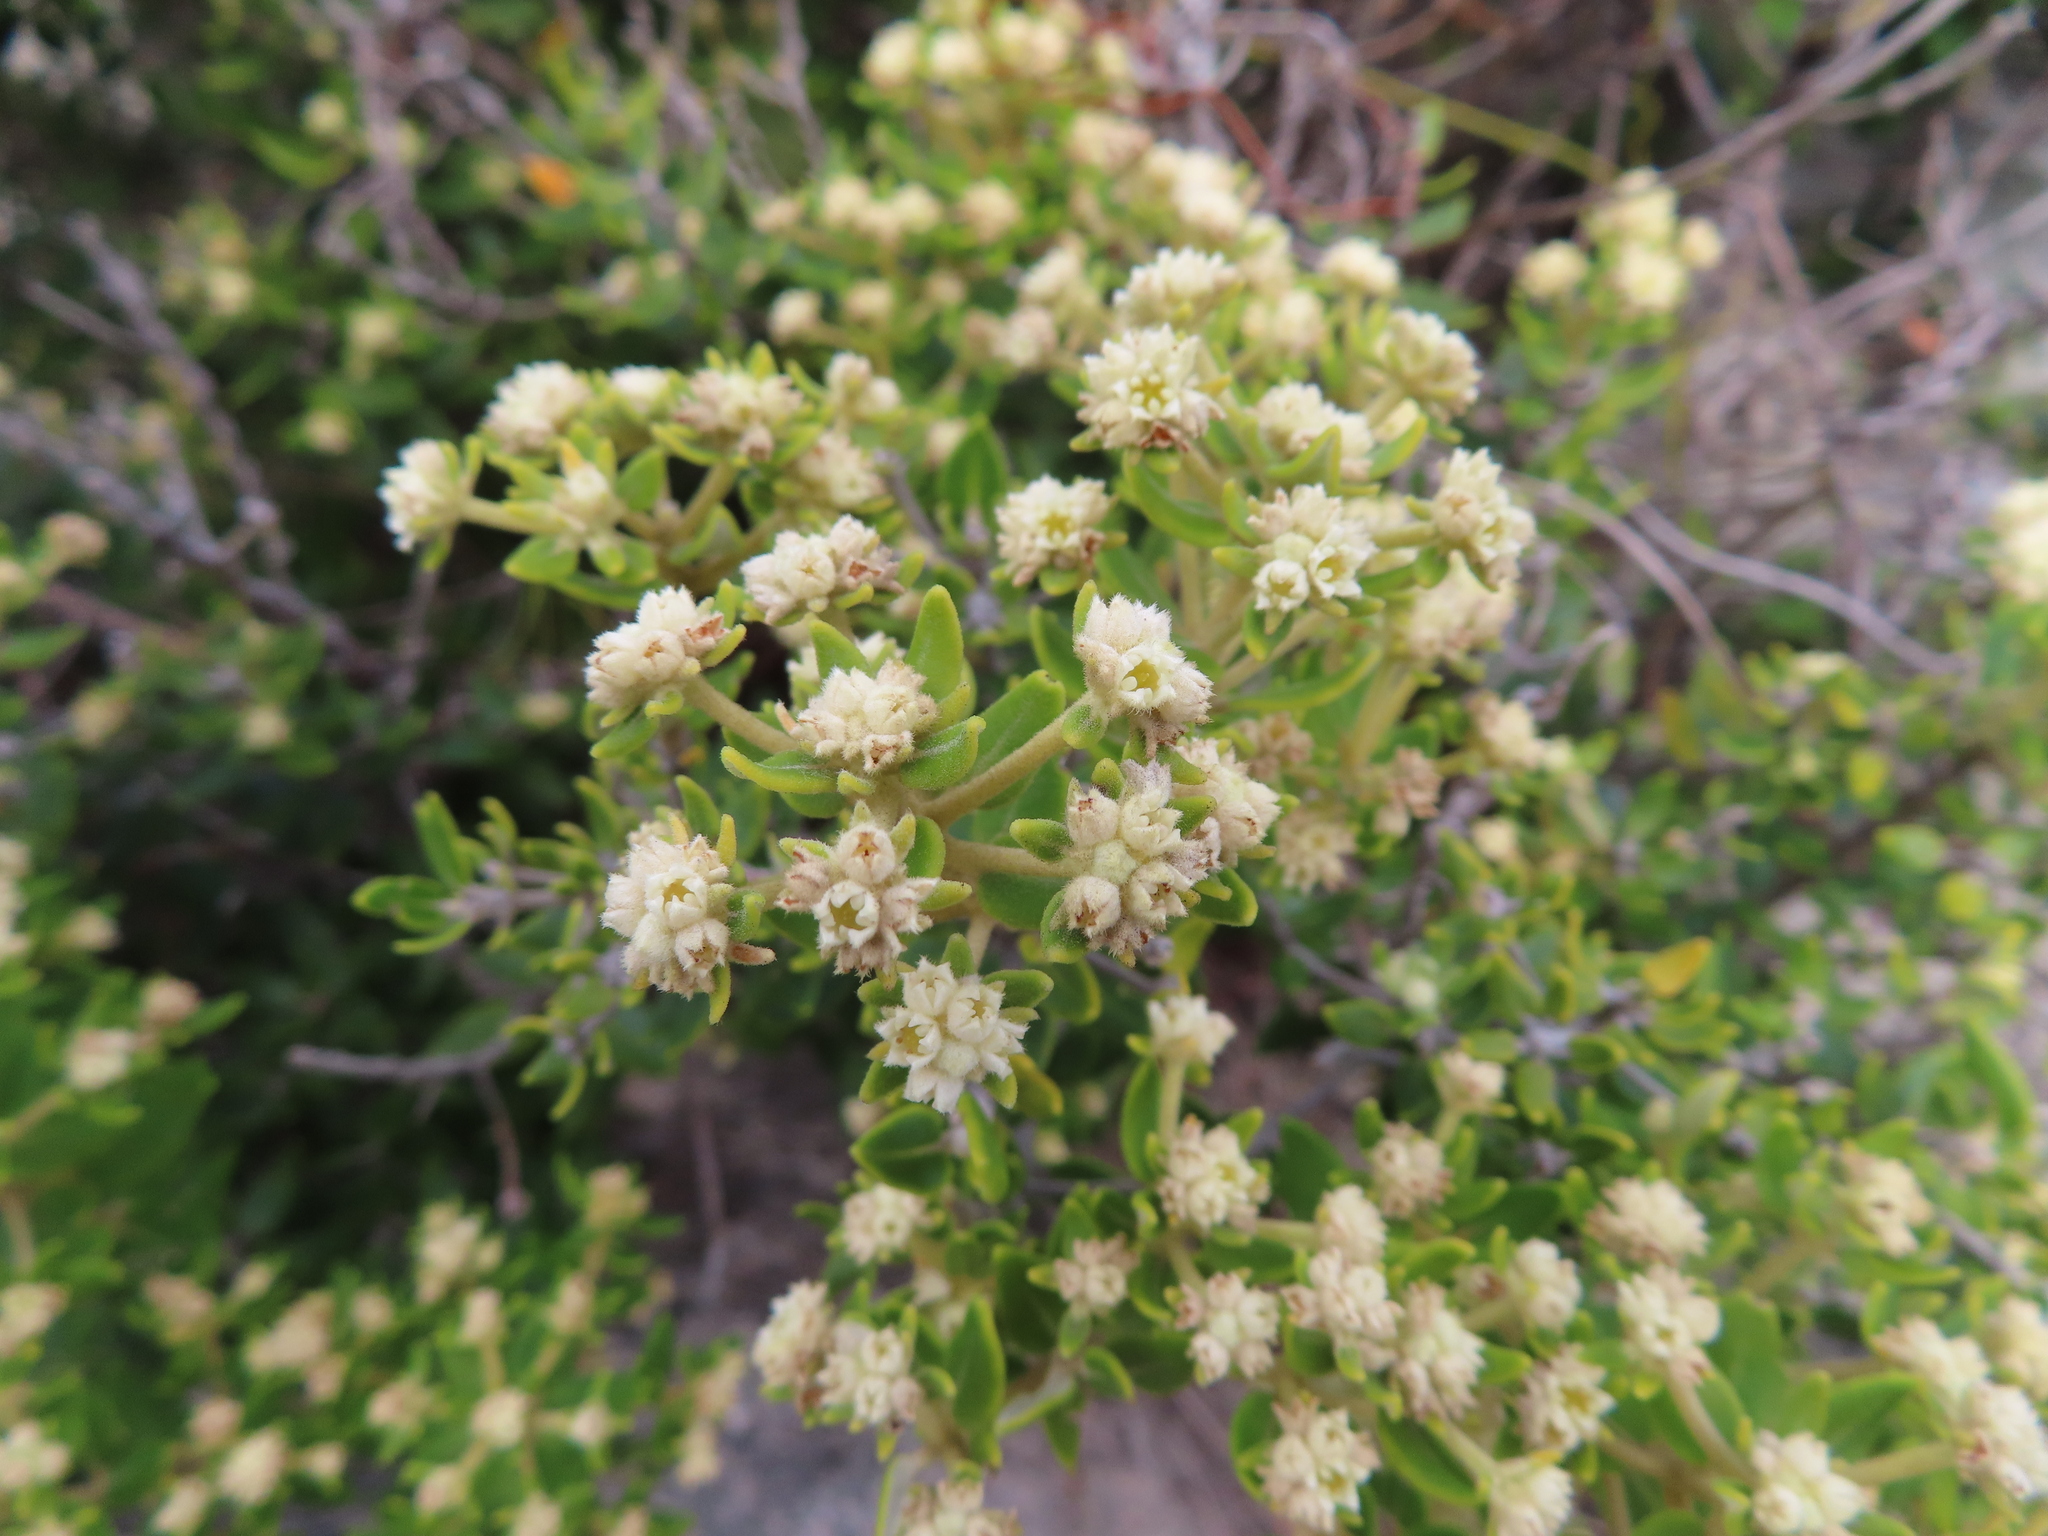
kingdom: Plantae
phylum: Tracheophyta
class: Magnoliopsida
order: Rosales
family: Rhamnaceae
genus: Phylica
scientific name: Phylica buxifolia
